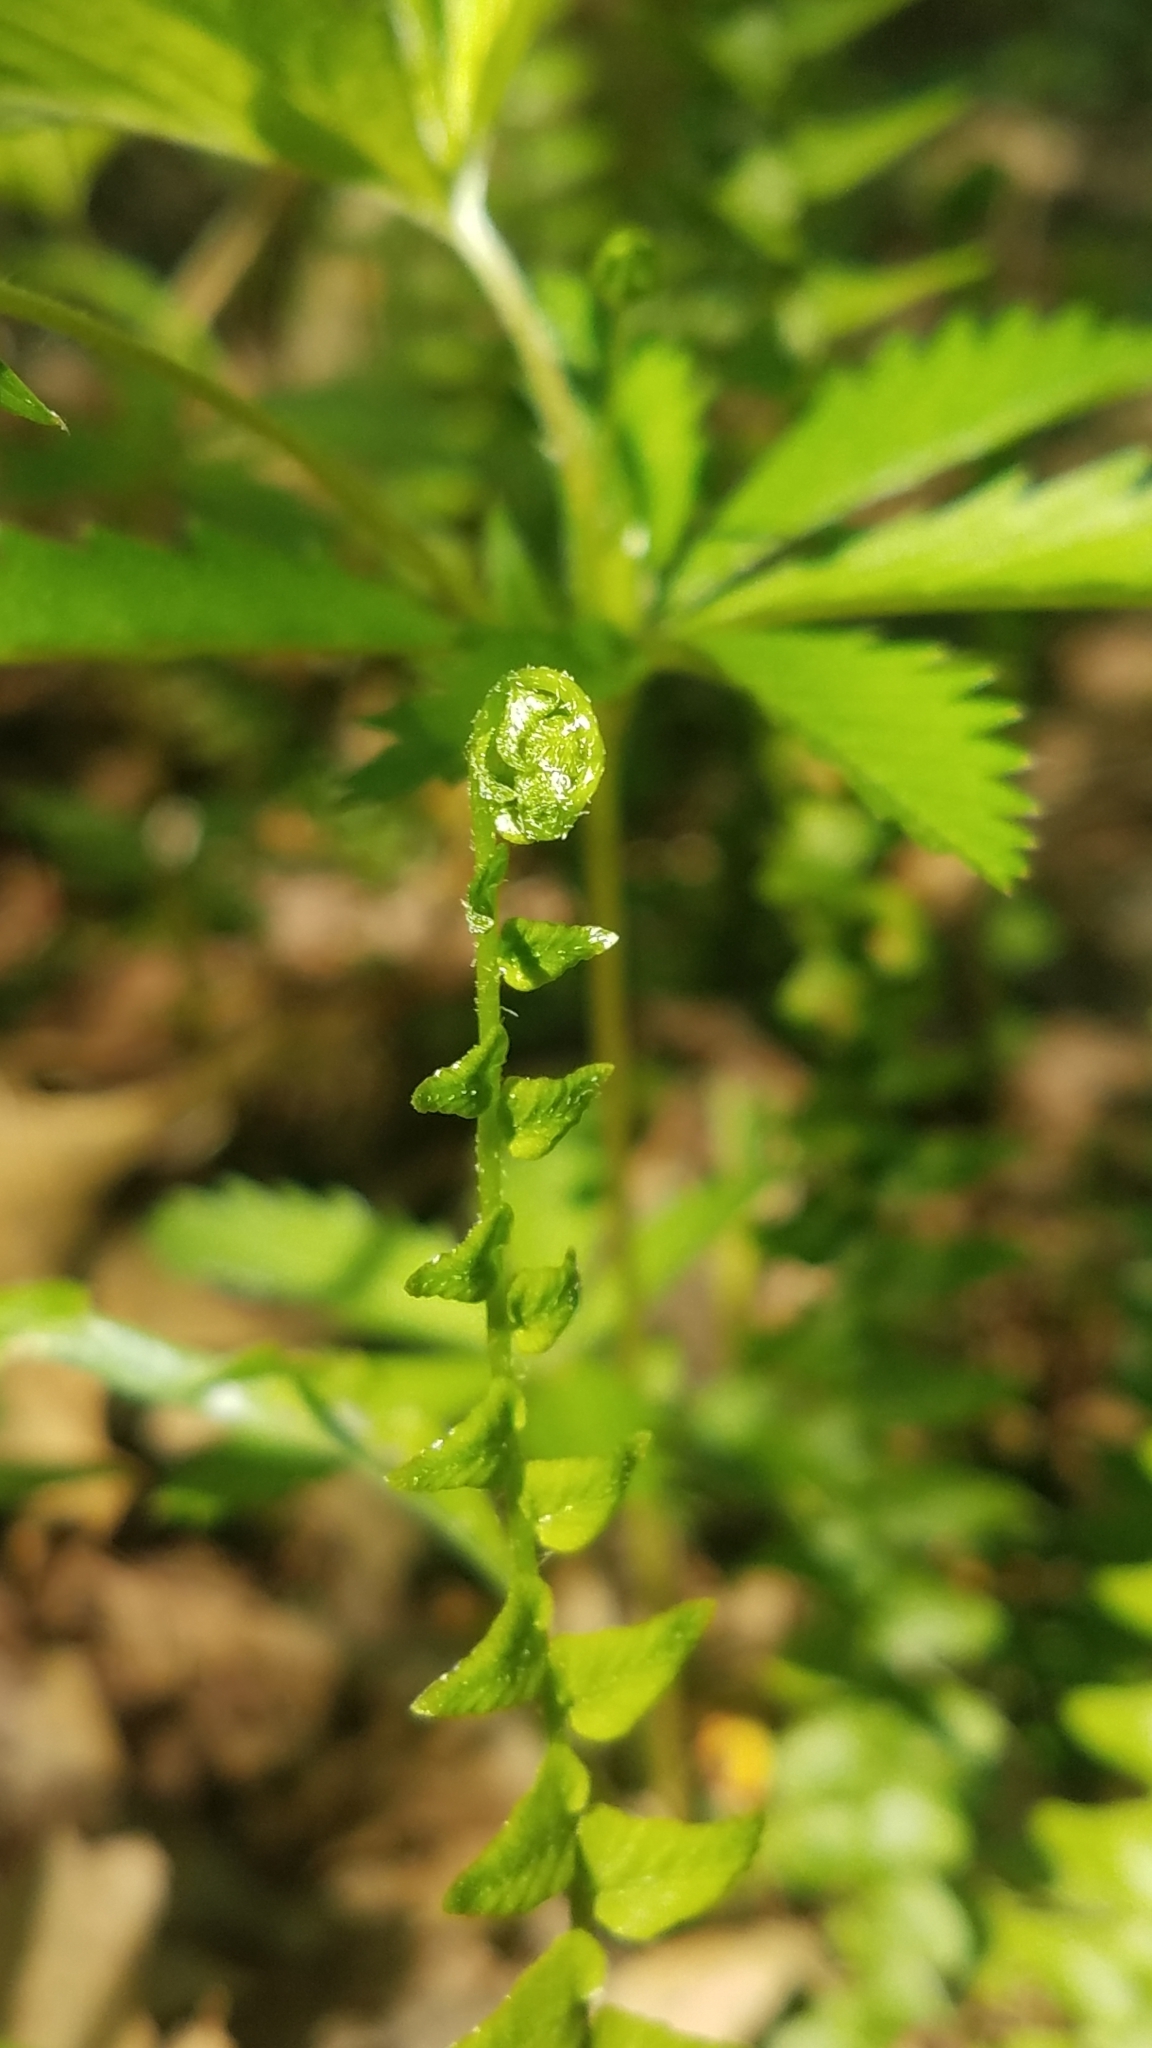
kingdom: Plantae
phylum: Tracheophyta
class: Polypodiopsida
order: Polypodiales
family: Aspleniaceae
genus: Asplenium
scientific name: Asplenium platyneuron
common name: Ebony spleenwort
